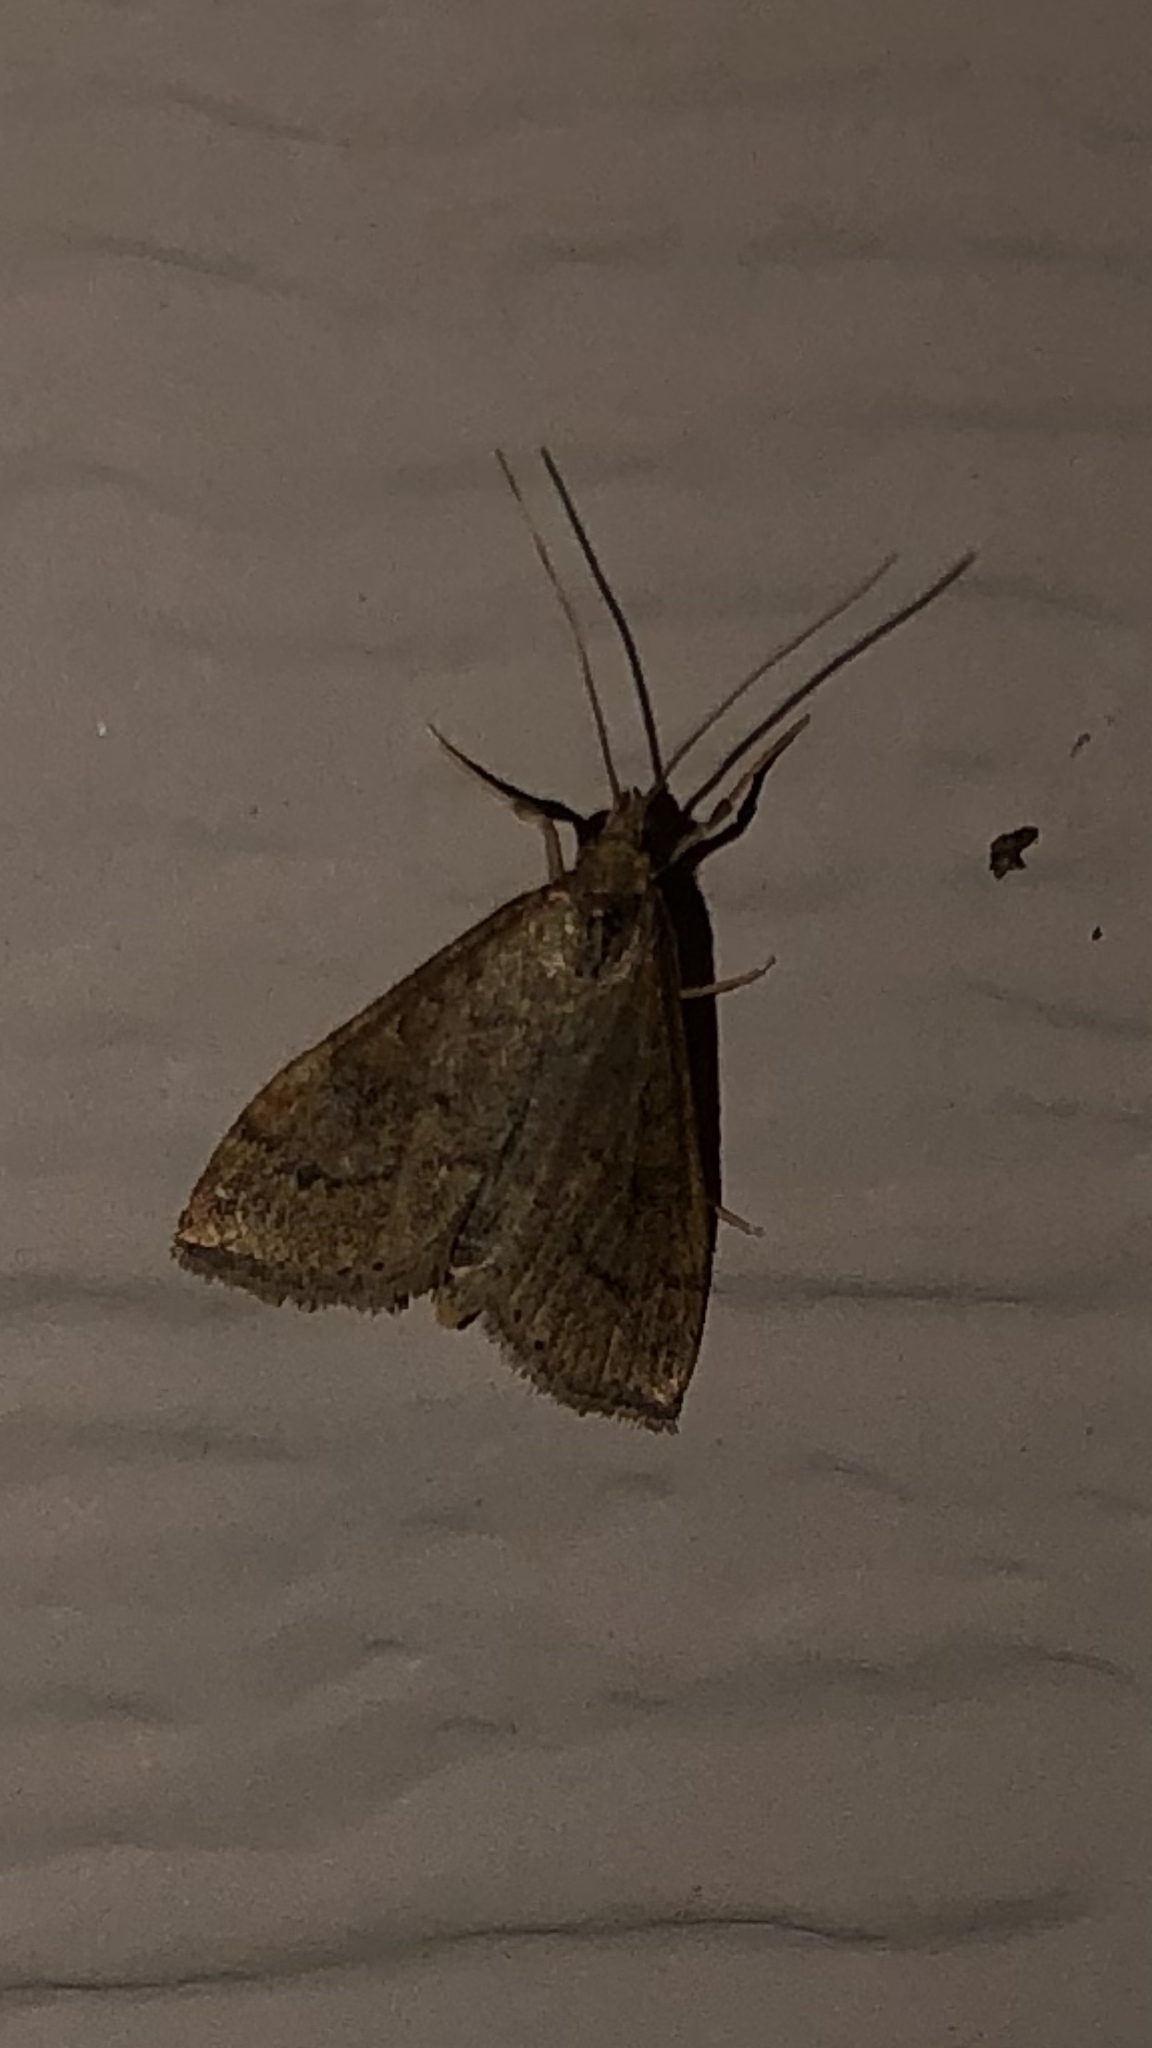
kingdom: Animalia
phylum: Arthropoda
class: Insecta
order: Lepidoptera
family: Crambidae
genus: Udea
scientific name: Udea rubigalis
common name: Celery leaftier moth
